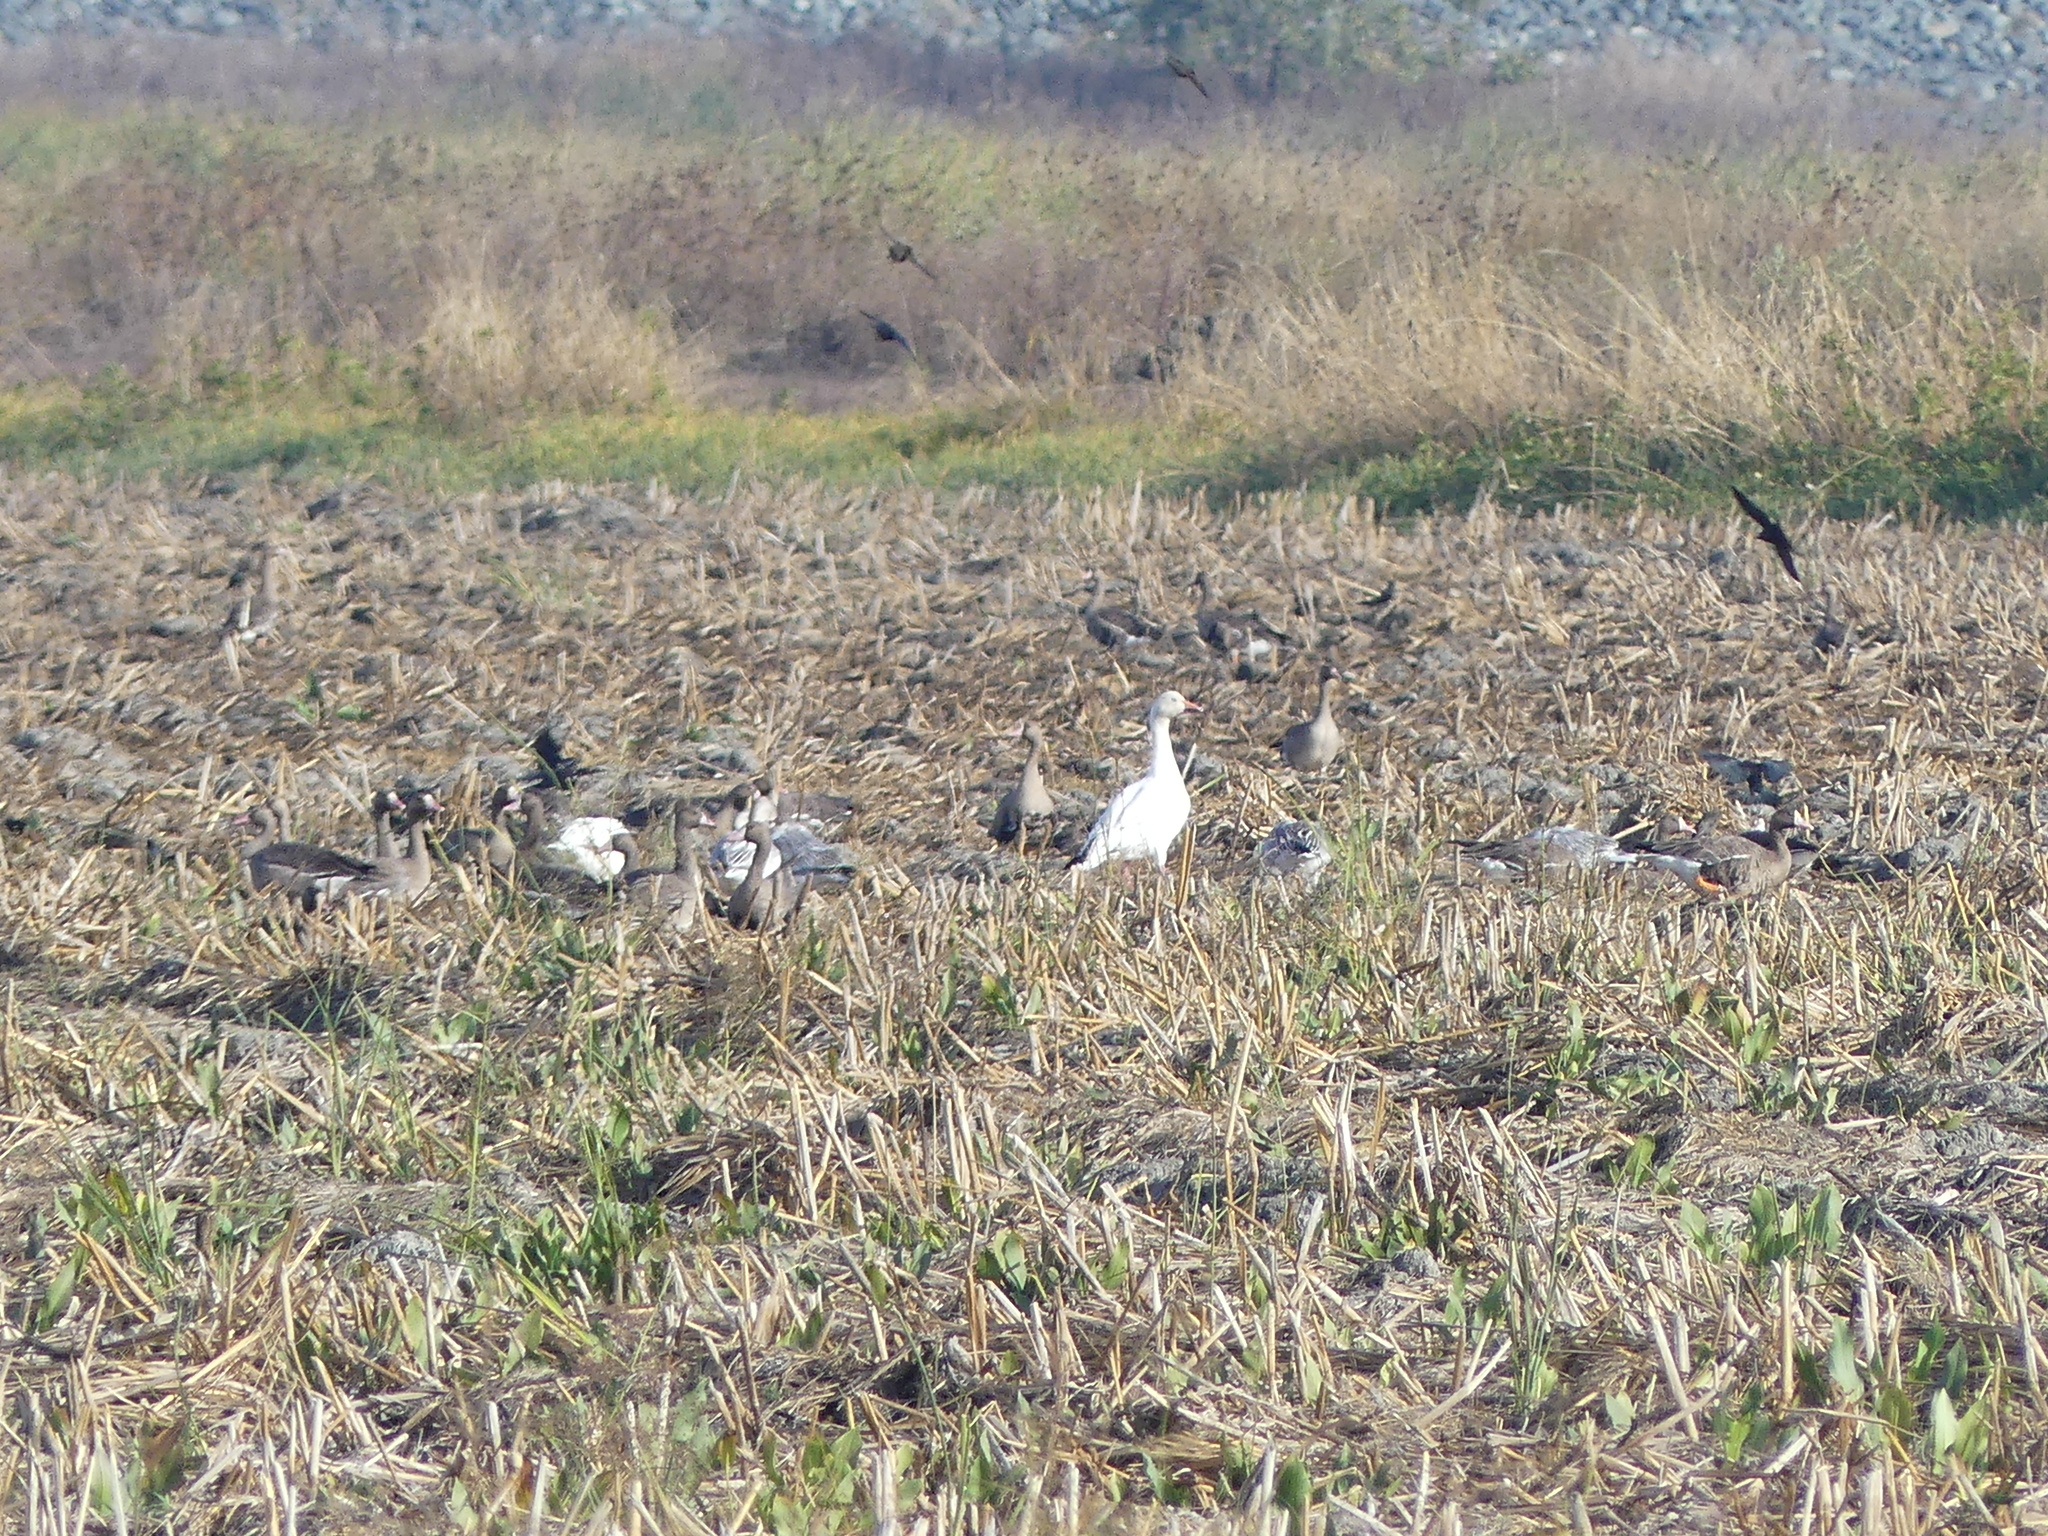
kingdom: Animalia
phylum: Chordata
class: Aves
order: Anseriformes
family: Anatidae
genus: Anser
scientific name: Anser caerulescens
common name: Snow goose
